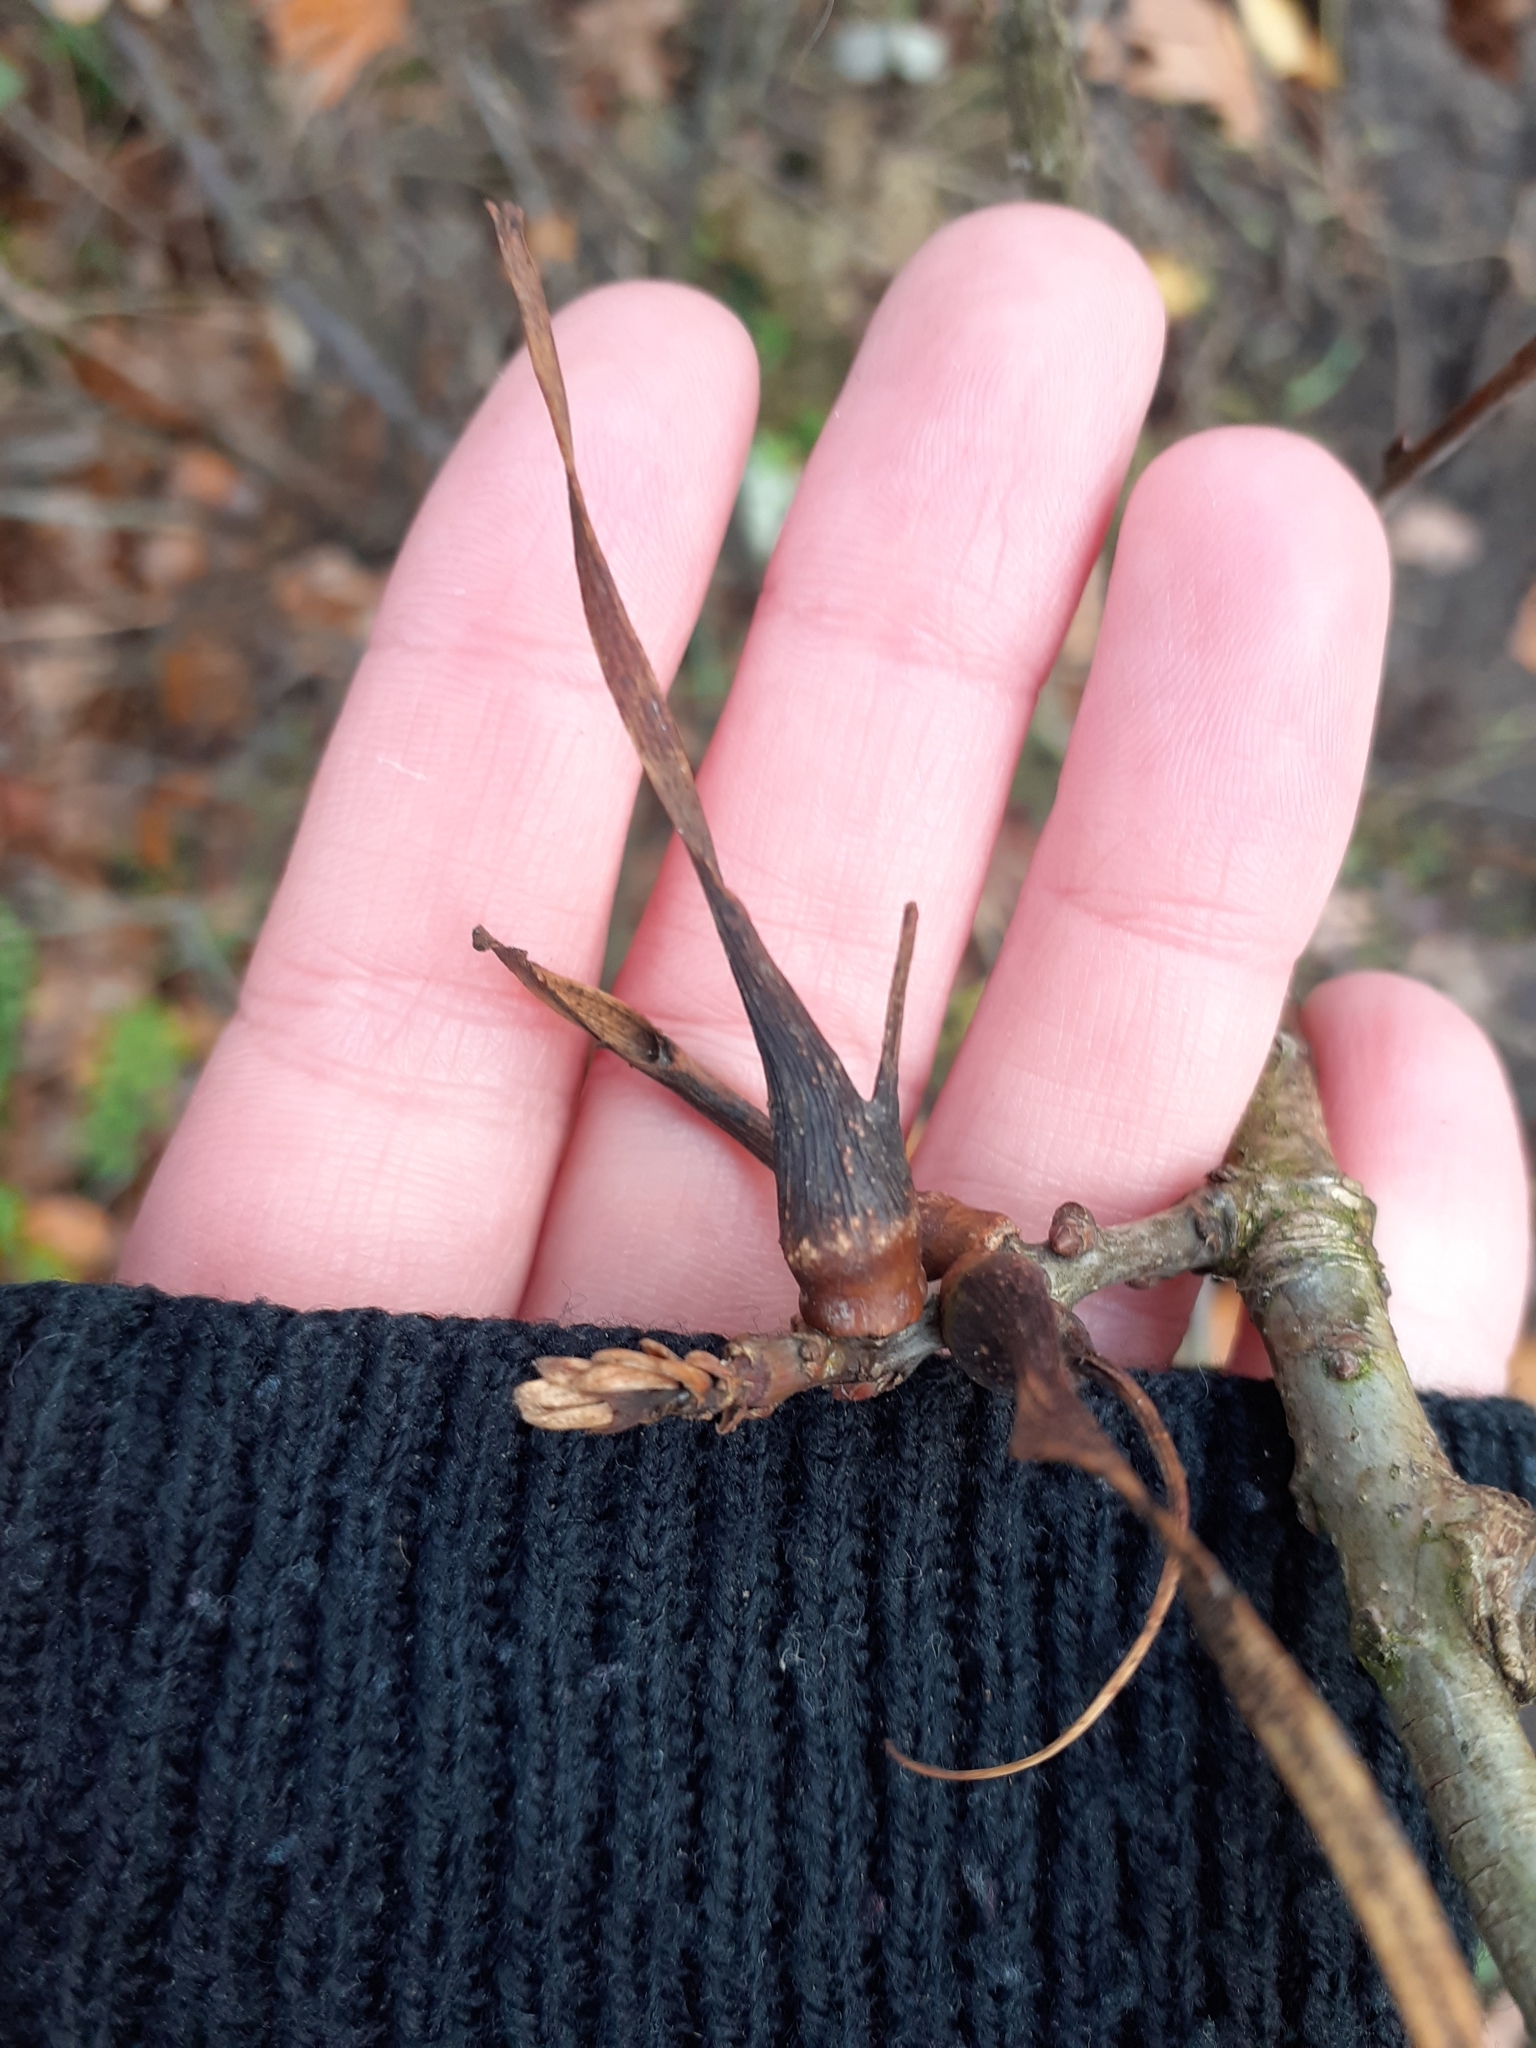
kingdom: Animalia
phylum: Arthropoda
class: Insecta
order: Hymenoptera
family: Cynipidae
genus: Andricus
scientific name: Andricus aries
